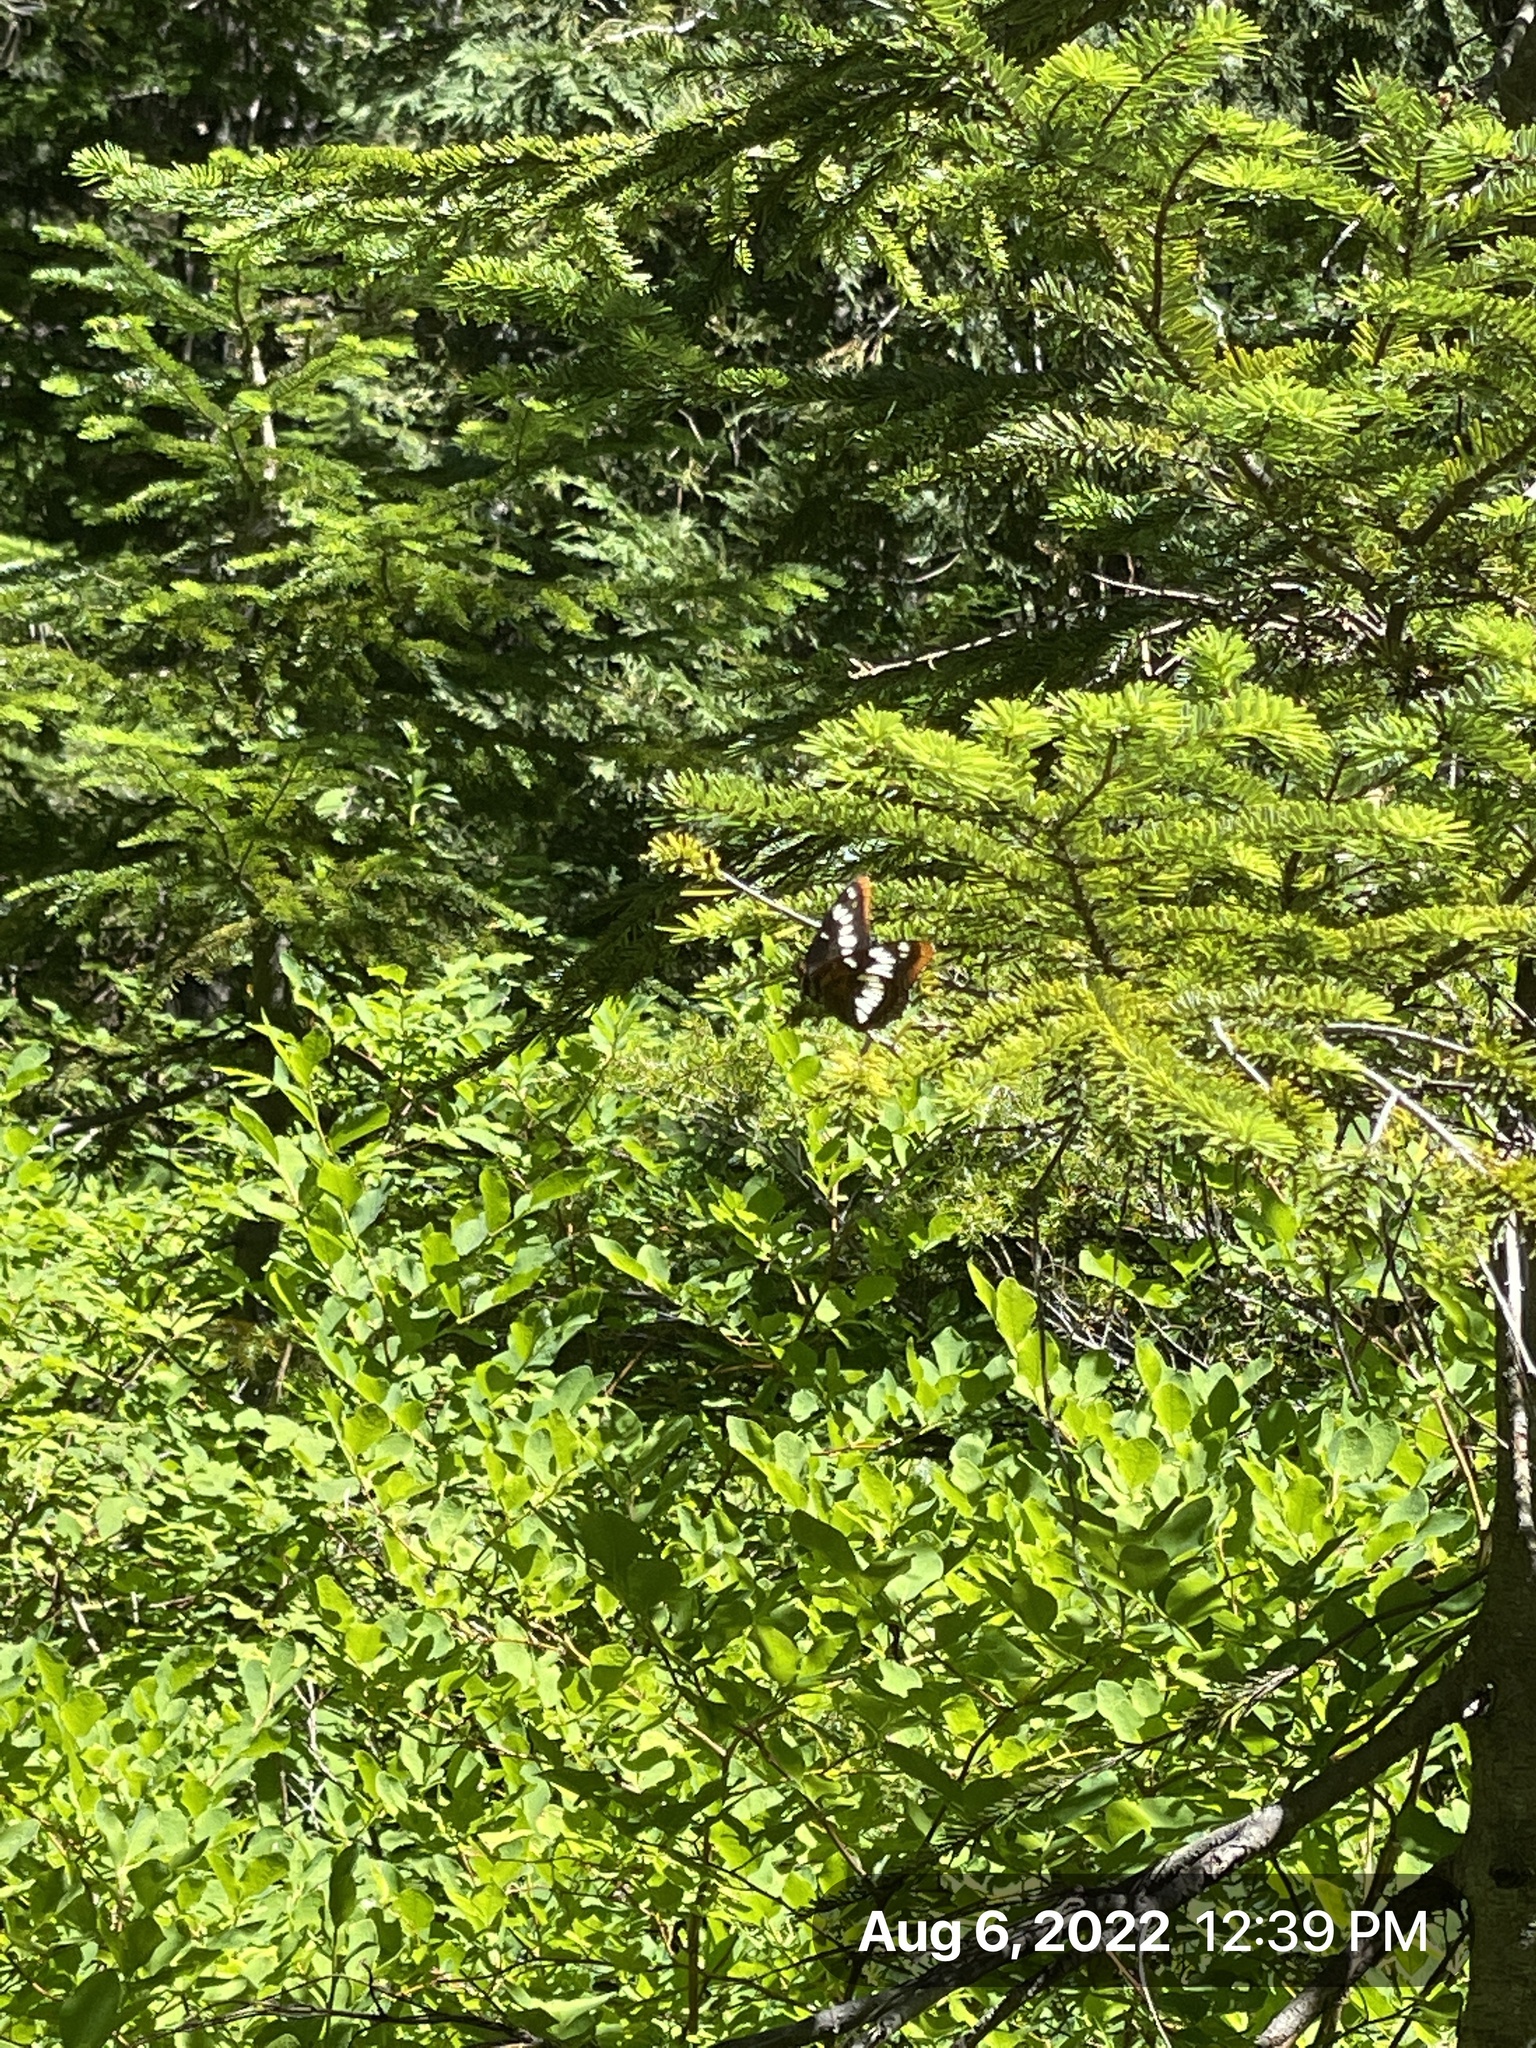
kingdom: Animalia
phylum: Arthropoda
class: Insecta
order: Lepidoptera
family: Nymphalidae
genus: Limenitis
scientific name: Limenitis lorquini
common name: Lorquin's admiral
